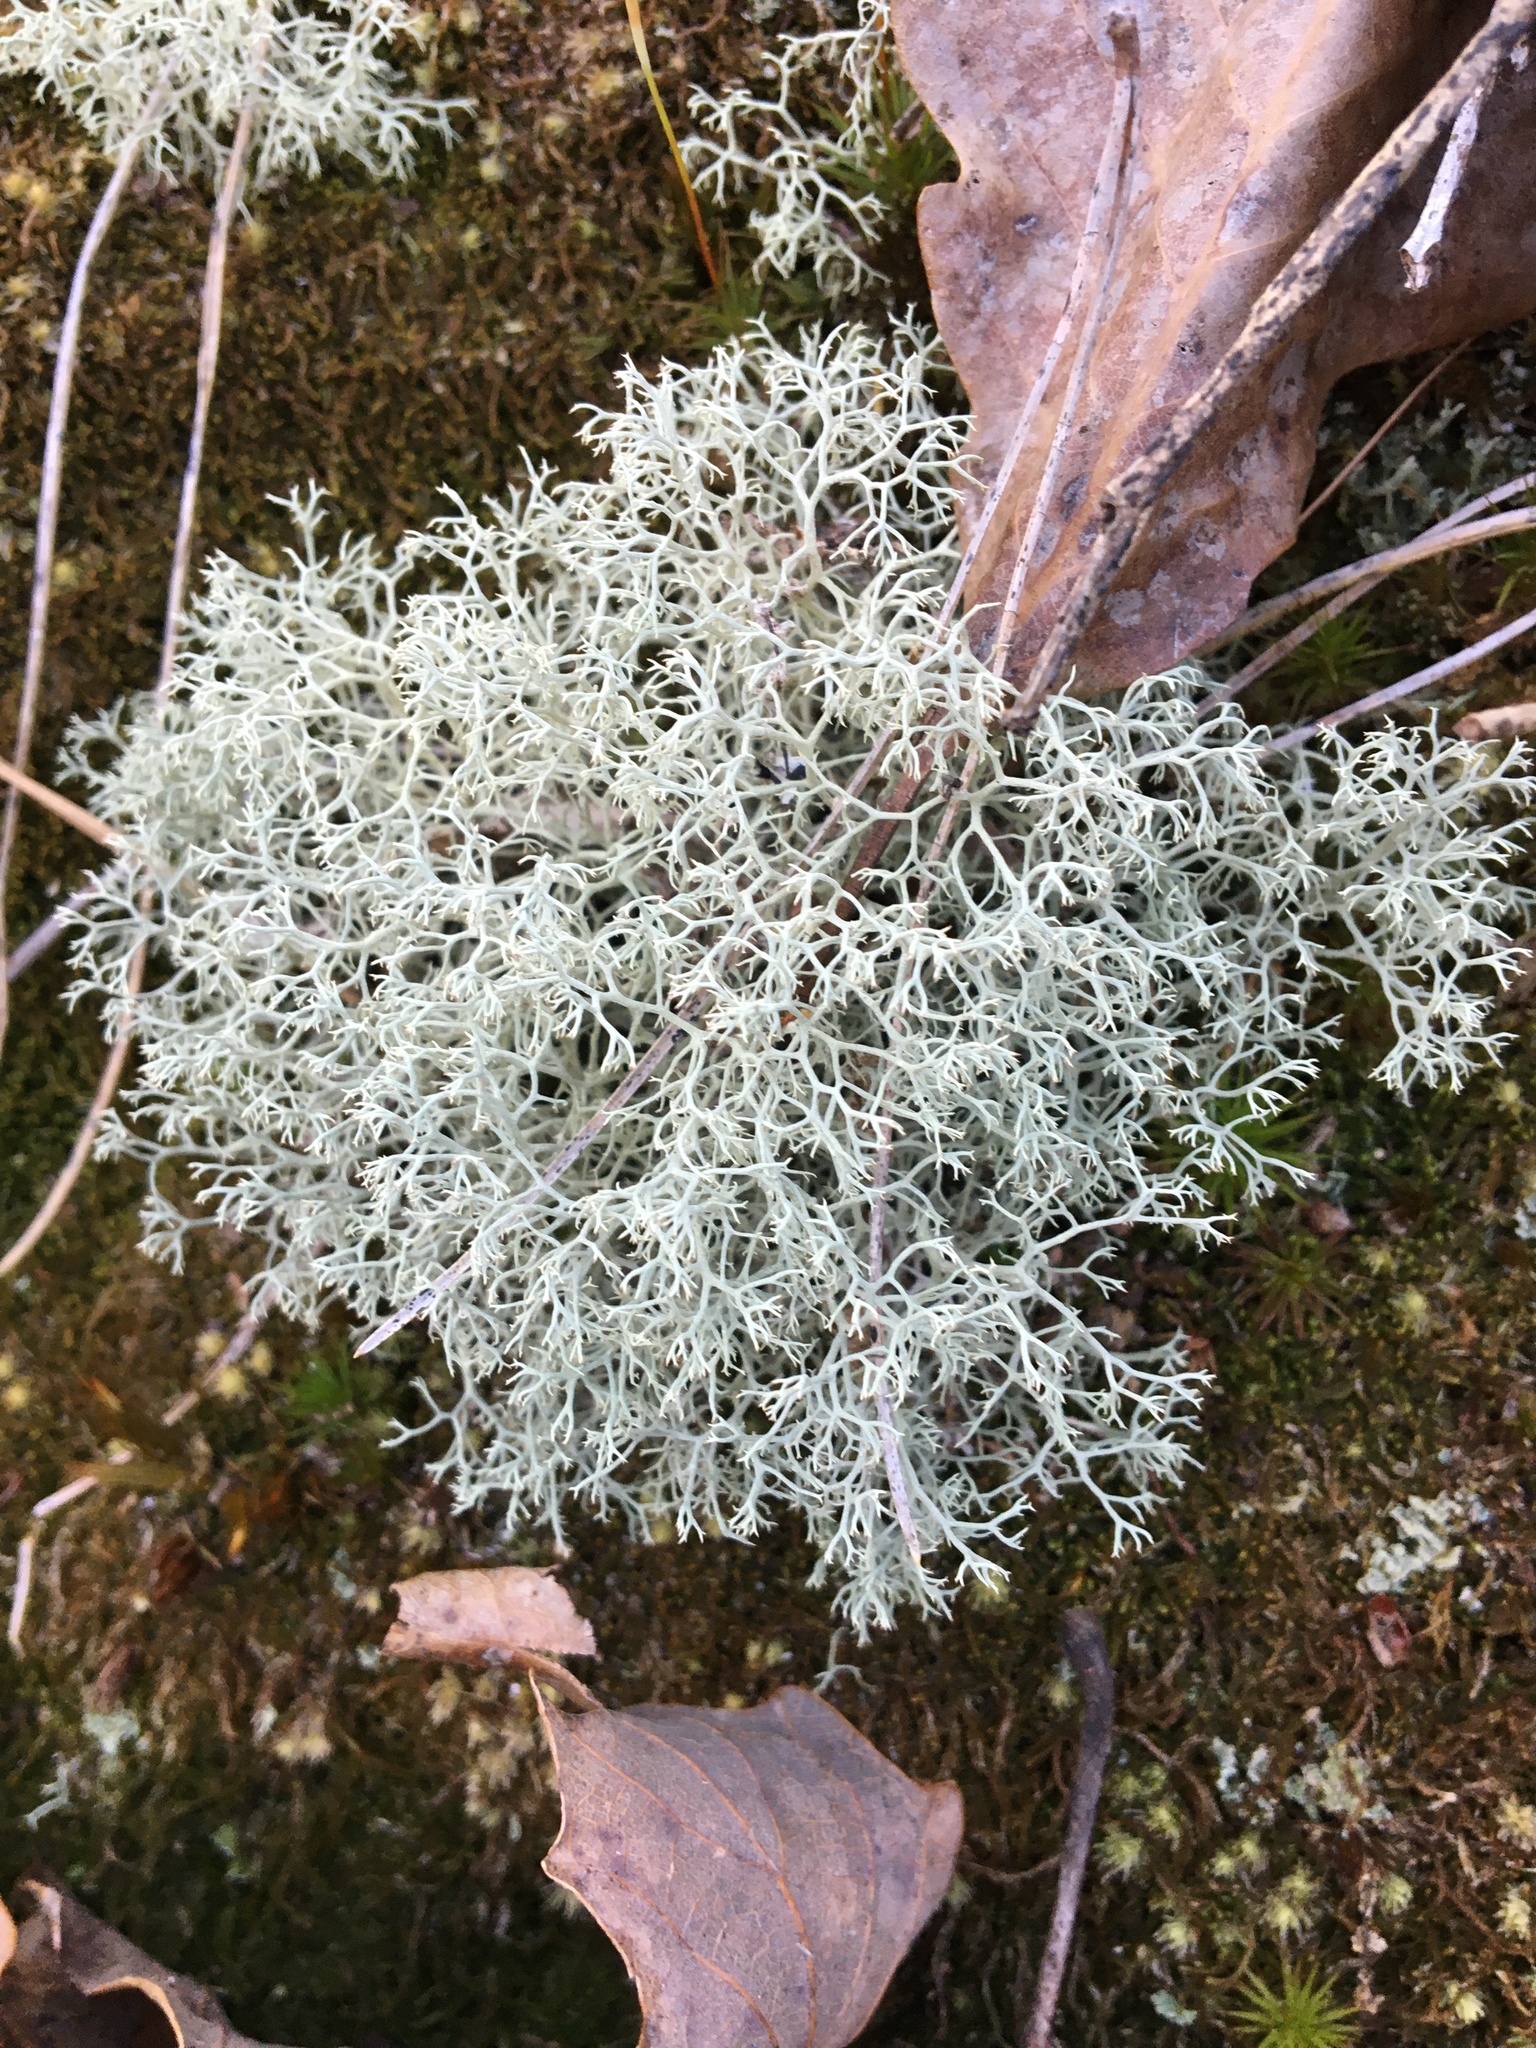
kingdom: Fungi
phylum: Ascomycota
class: Lecanoromycetes
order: Lecanorales
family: Cladoniaceae
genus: Cladonia
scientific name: Cladonia subtenuis
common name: Dixie reindeer lichen
